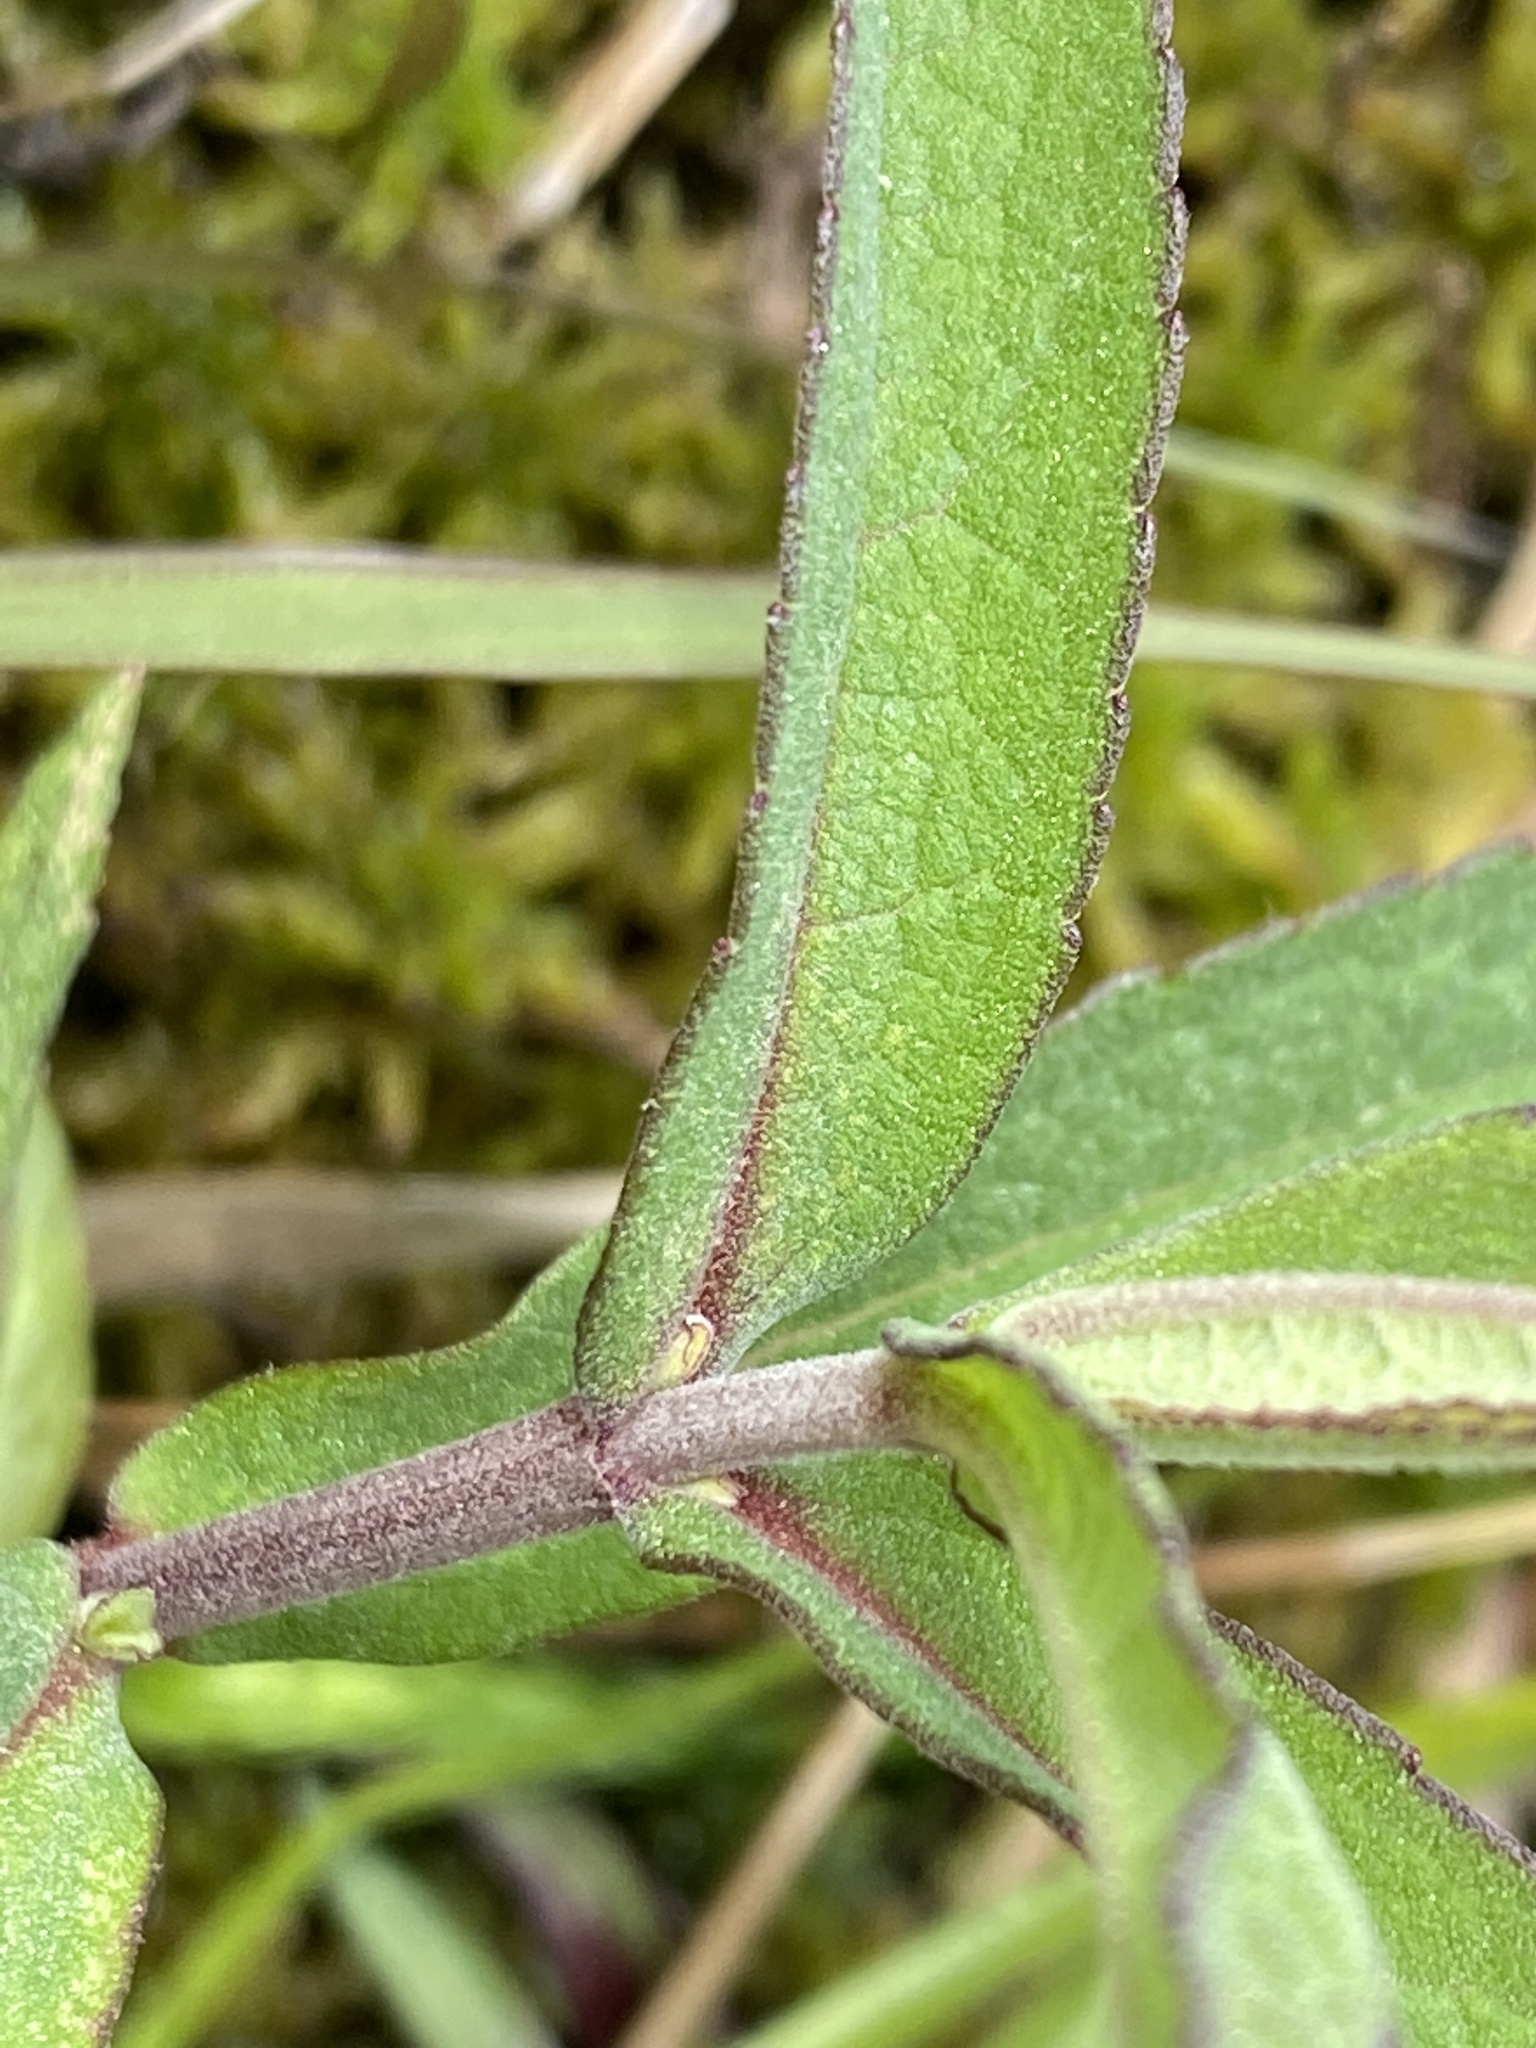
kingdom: Plantae
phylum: Tracheophyta
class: Magnoliopsida
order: Asterales
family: Asteraceae
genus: Eupatorium
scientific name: Eupatorium resinosum
